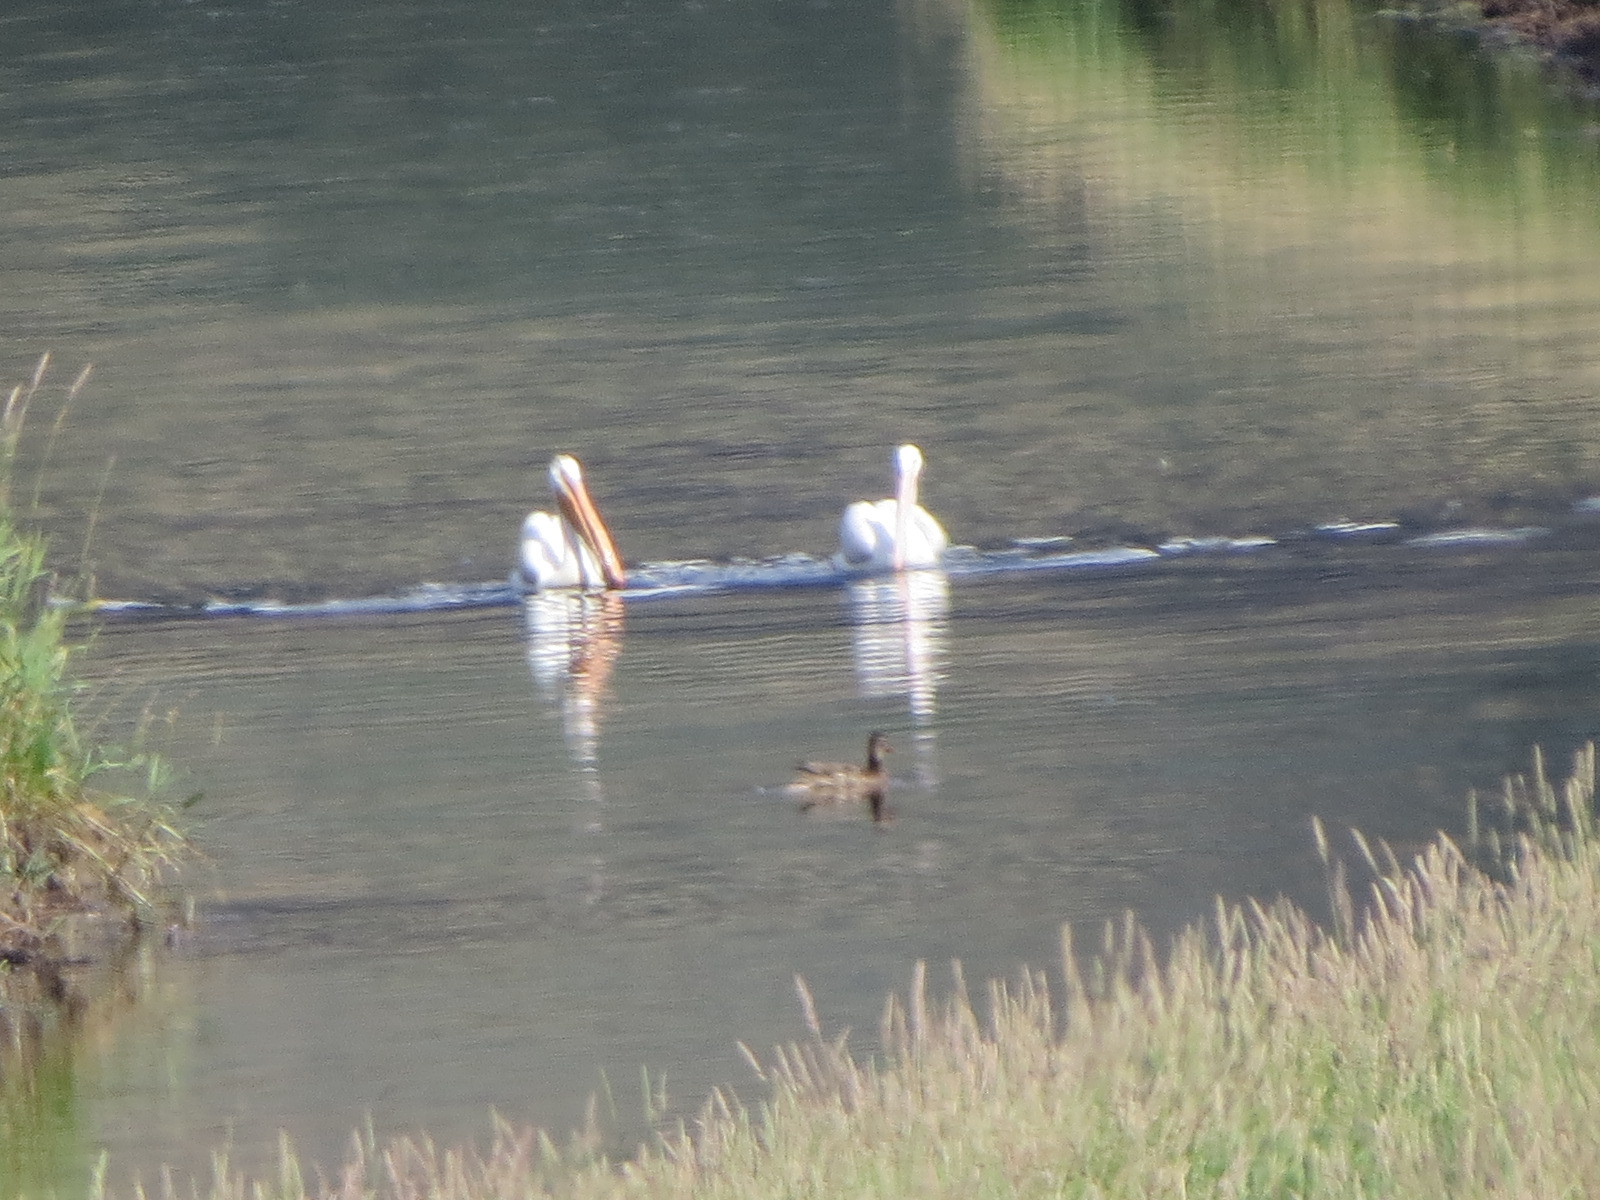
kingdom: Animalia
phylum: Chordata
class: Aves
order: Pelecaniformes
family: Pelecanidae
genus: Pelecanus
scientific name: Pelecanus erythrorhynchos
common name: American white pelican
